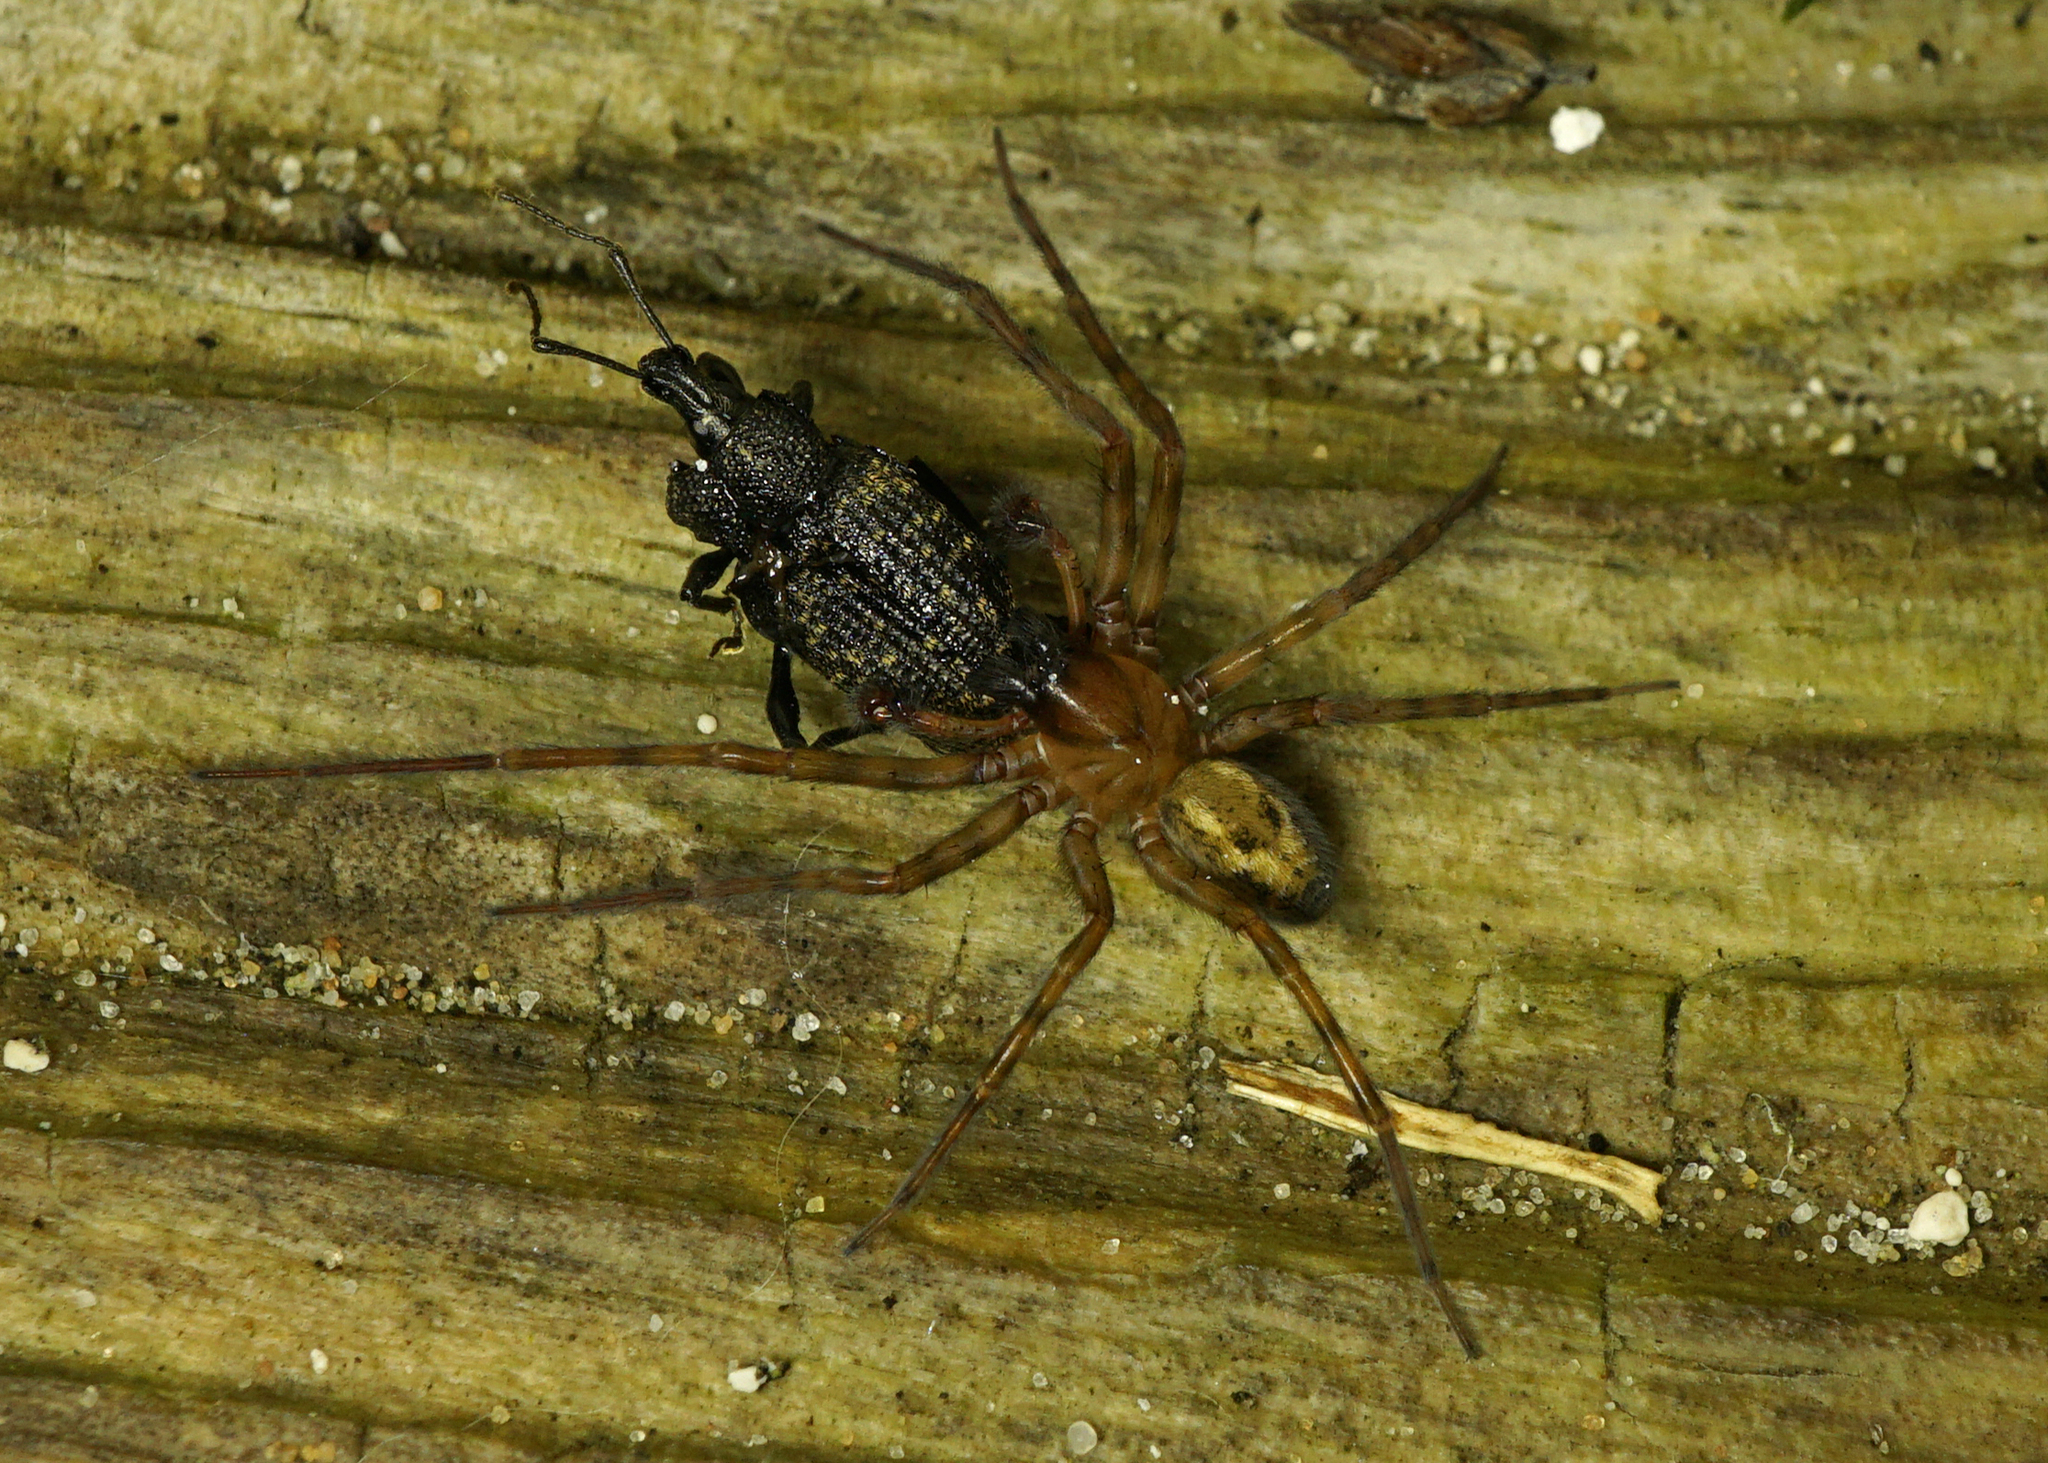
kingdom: Animalia
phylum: Arthropoda
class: Insecta
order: Coleoptera
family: Curculionidae
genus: Otiorhynchus
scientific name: Otiorhynchus sulcatus
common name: Black vine weevil
